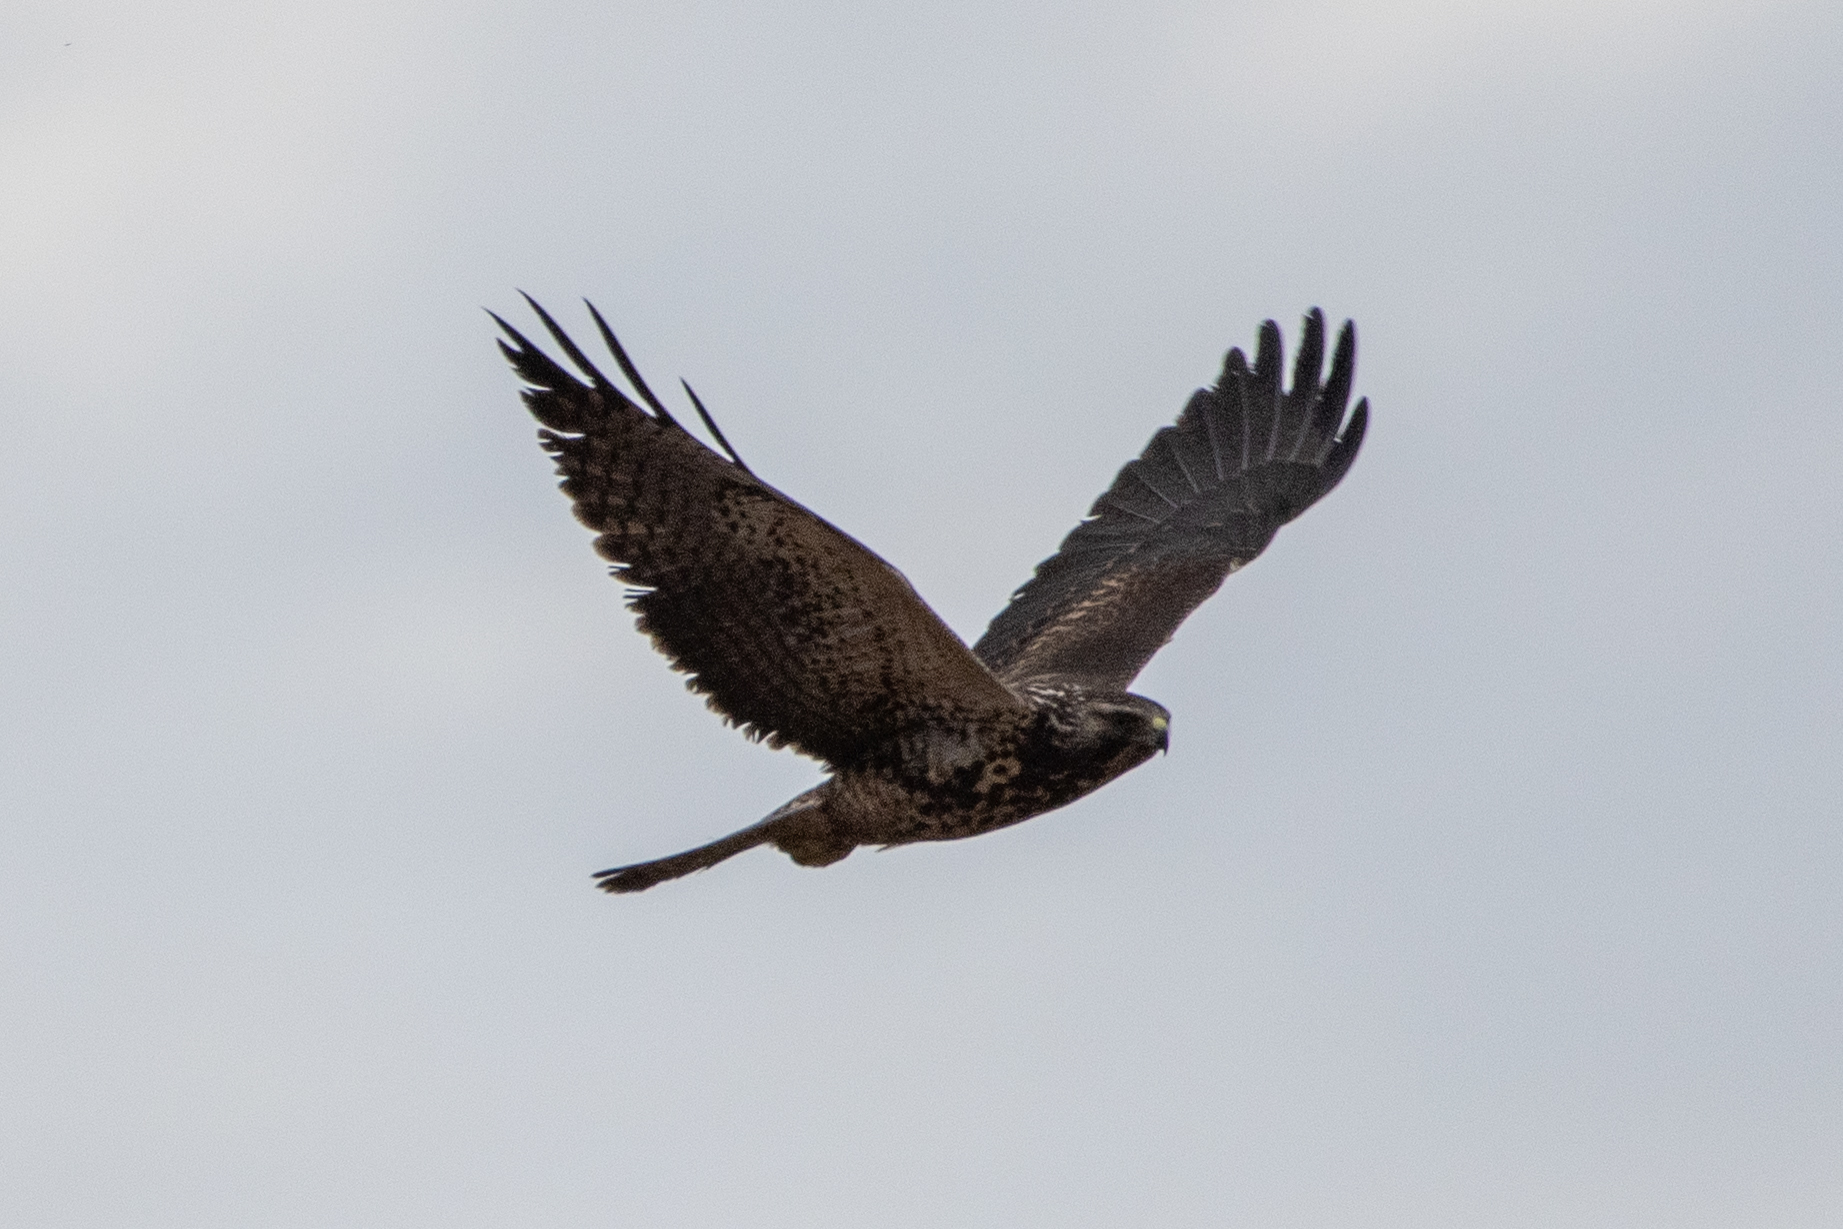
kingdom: Animalia
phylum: Chordata
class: Aves
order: Accipitriformes
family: Accipitridae
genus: Buteo
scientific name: Buteo swainsoni
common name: Swainson's hawk
